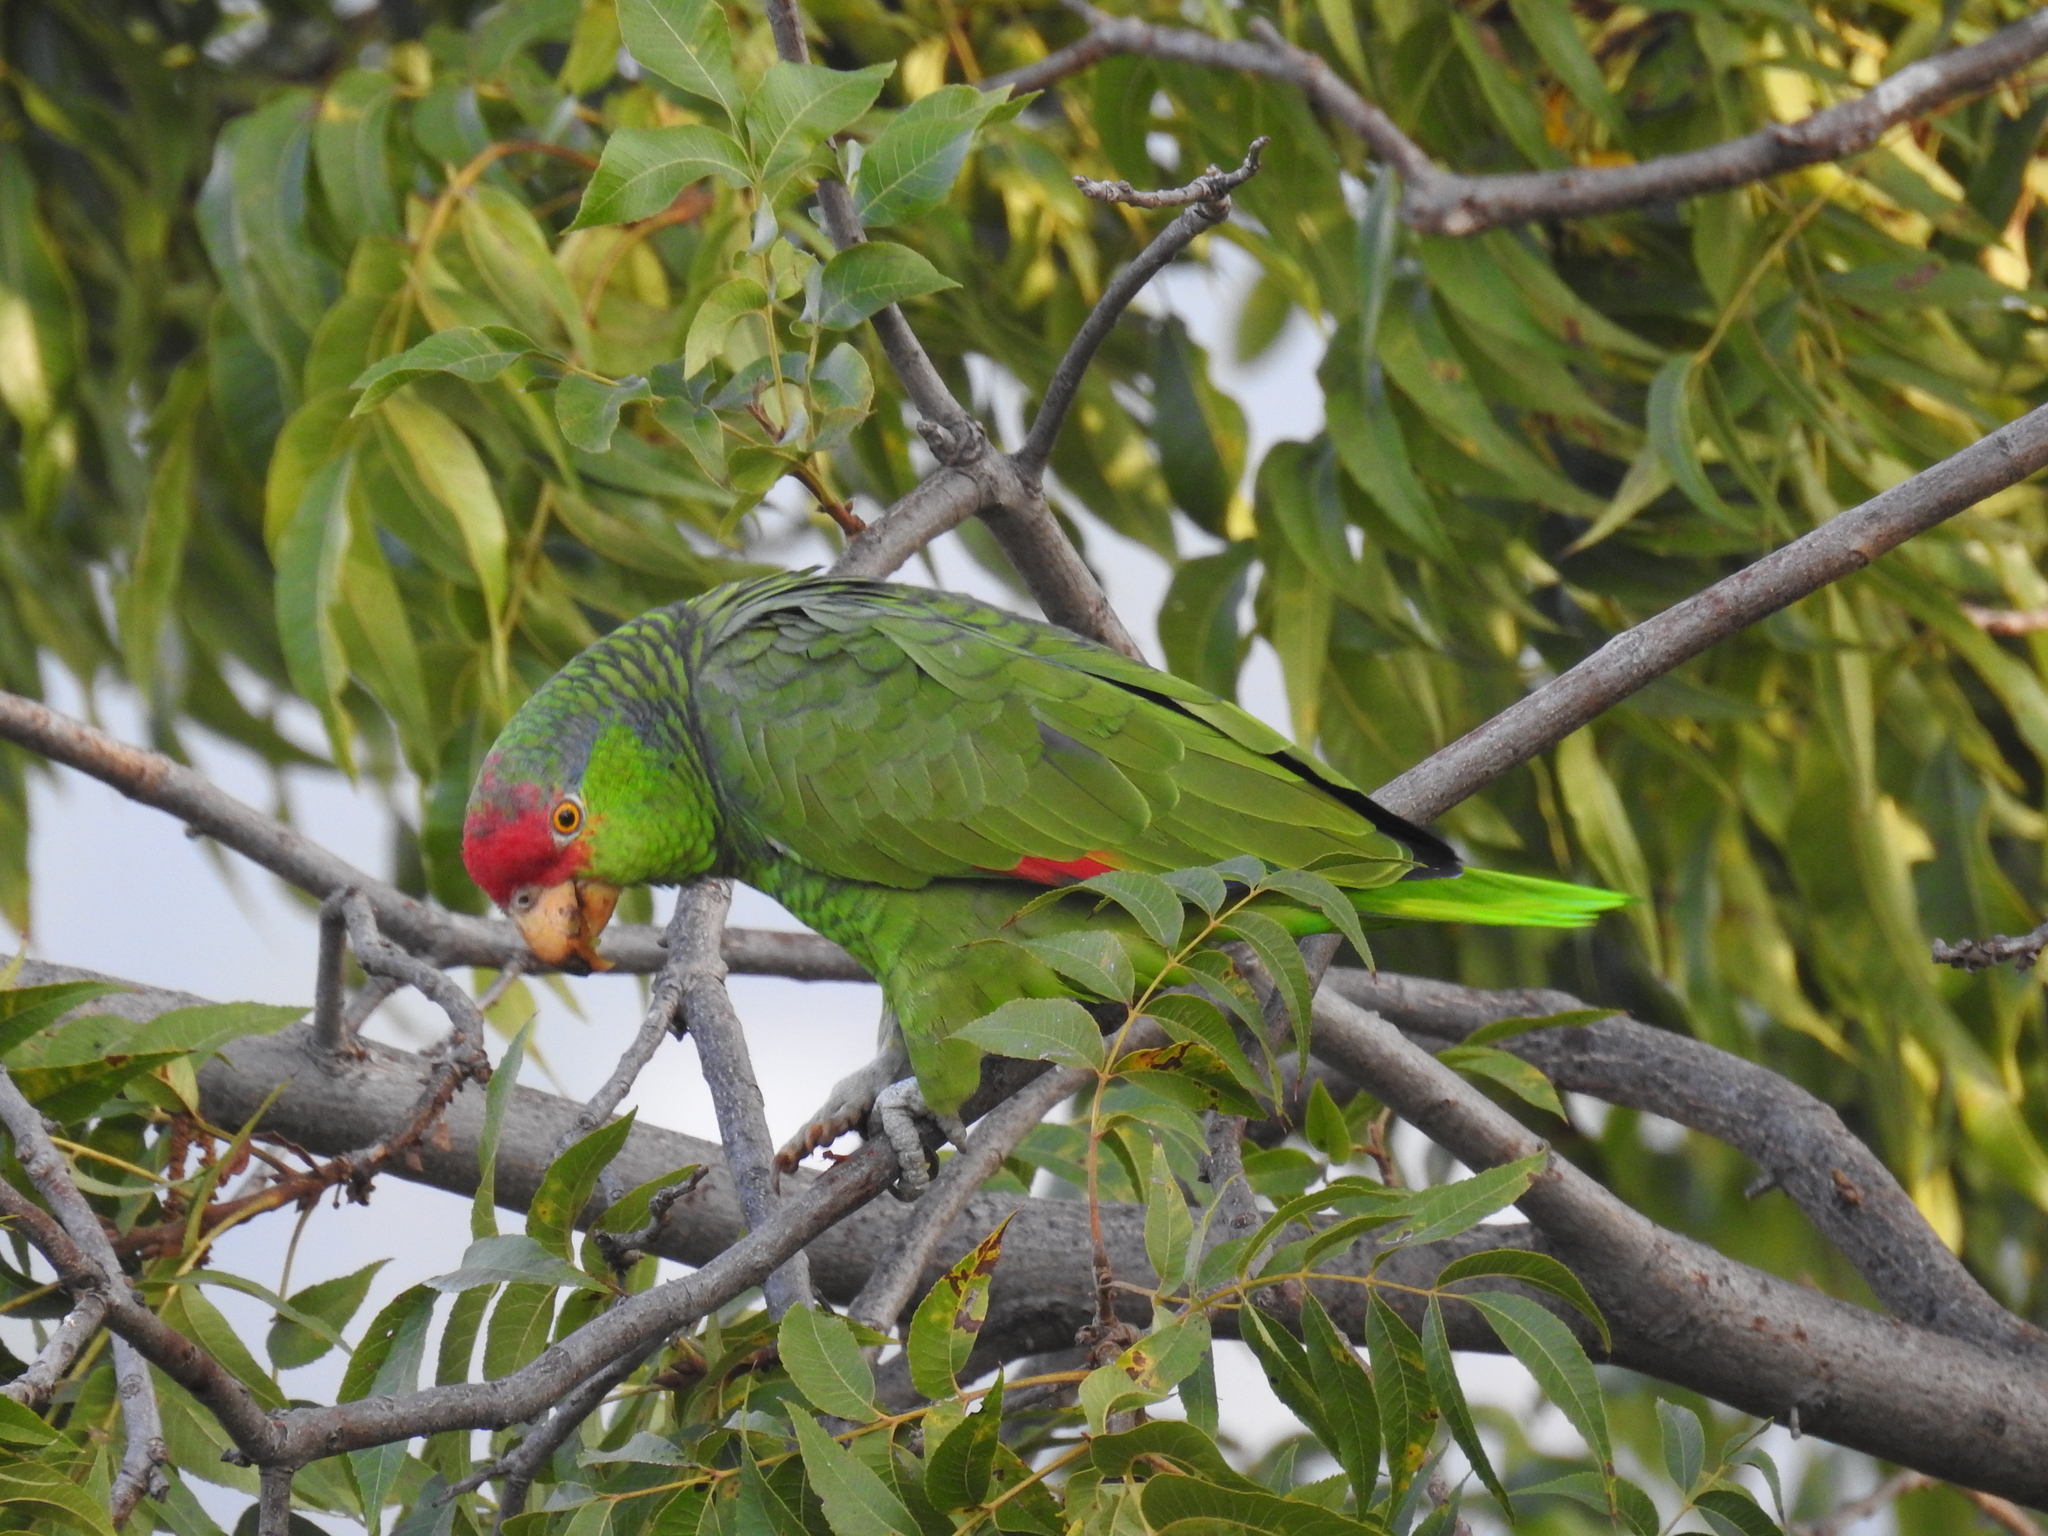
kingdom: Animalia
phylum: Chordata
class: Aves
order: Psittaciformes
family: Psittacidae
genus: Amazona
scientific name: Amazona viridigenalis
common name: Red-crowned amazon
